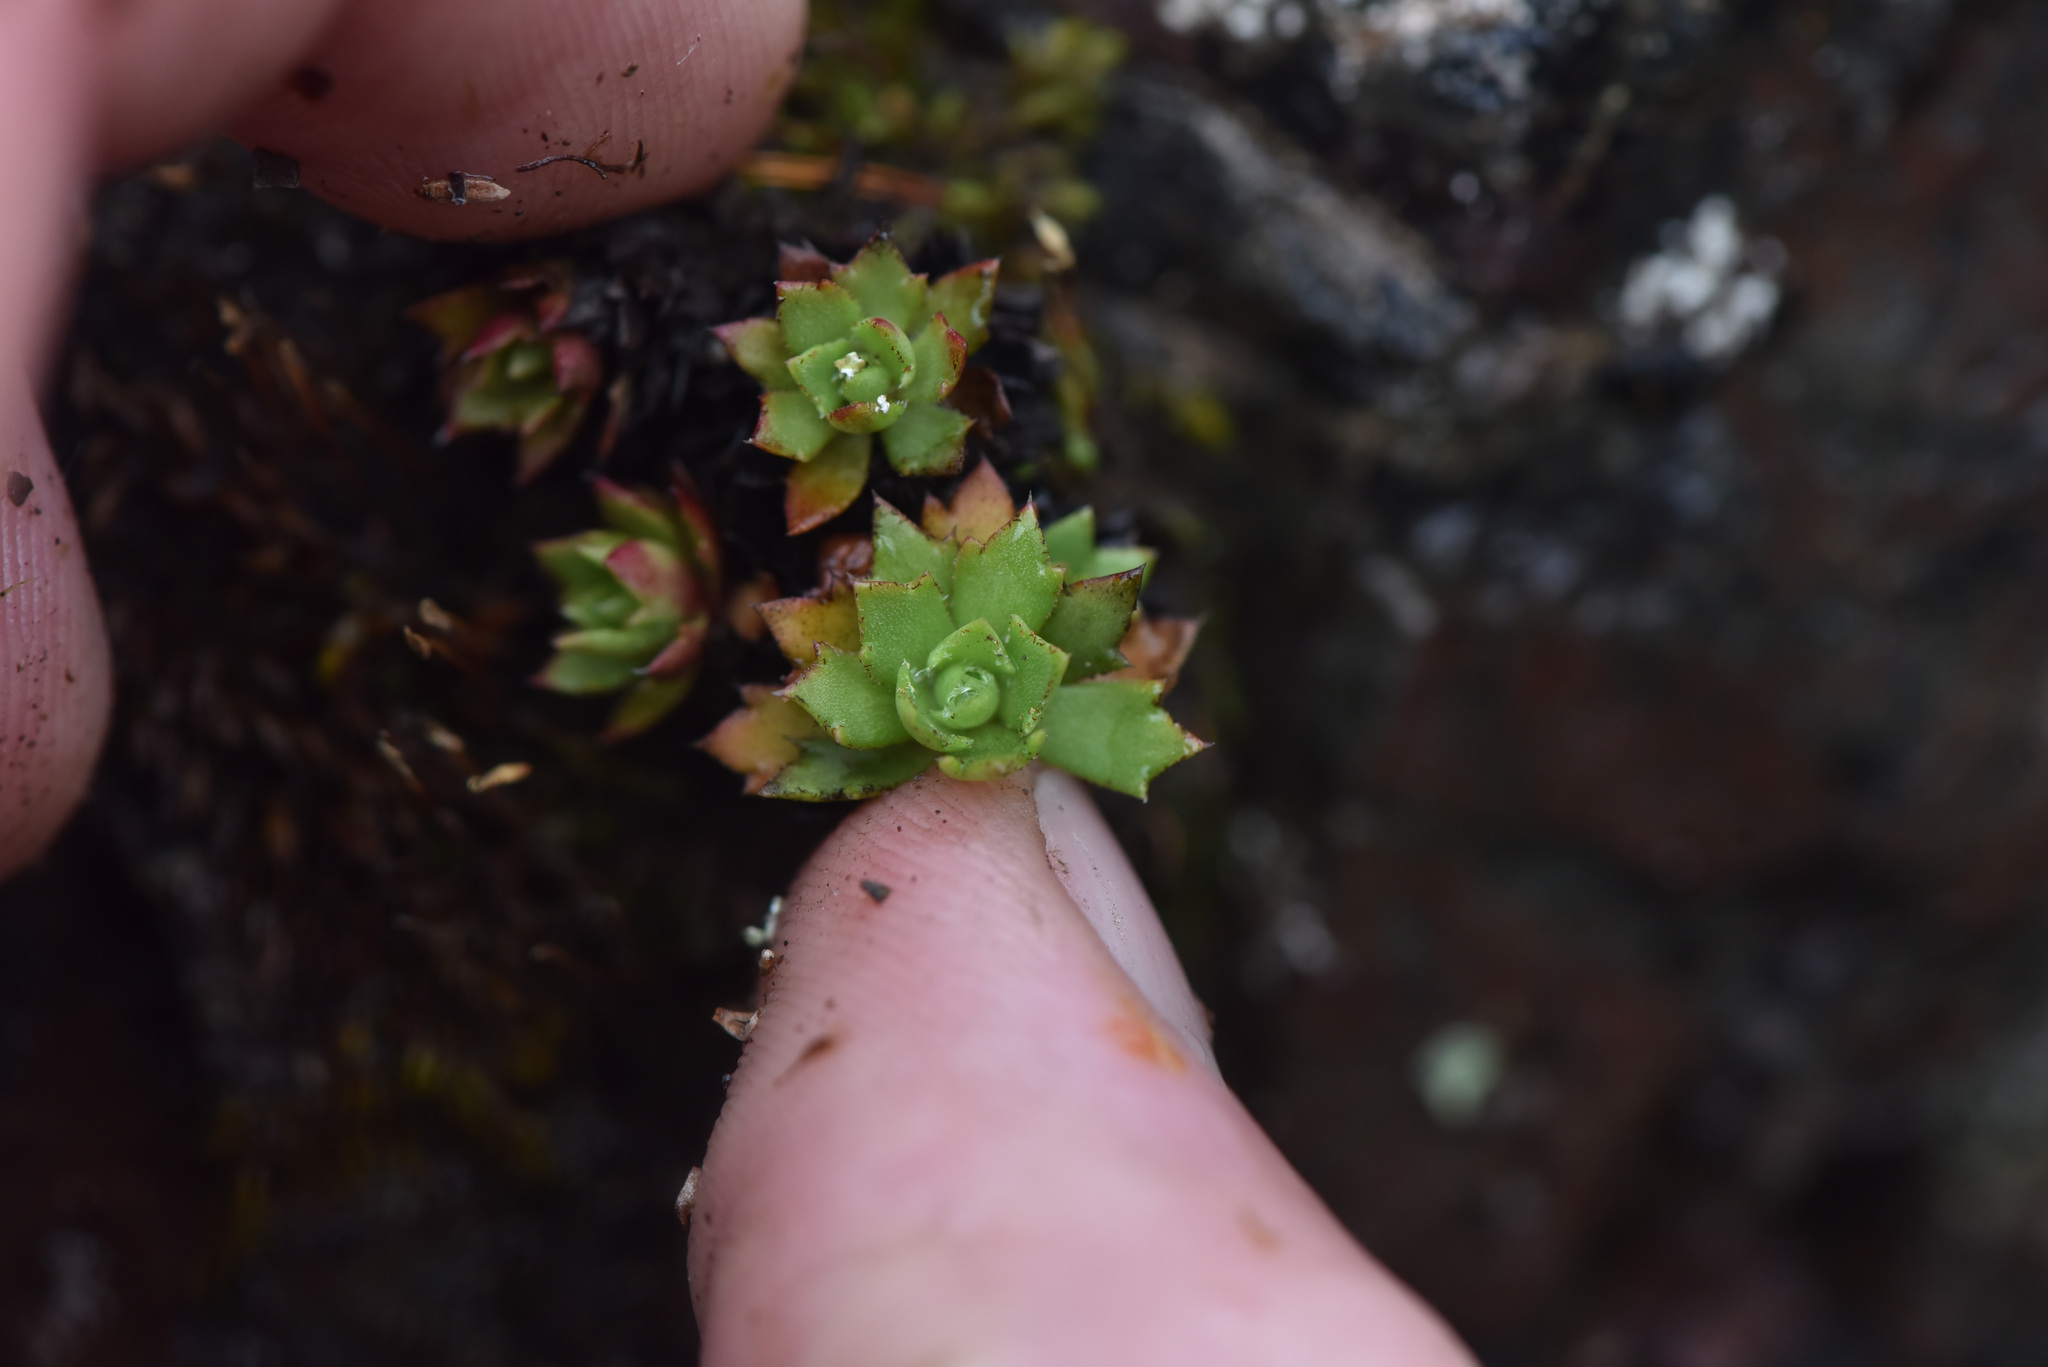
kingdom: Plantae
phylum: Tracheophyta
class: Magnoliopsida
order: Saxifragales
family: Saxifragaceae
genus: Saxifraga
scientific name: Saxifraga tricuspidata
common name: Prickly saxifrage
